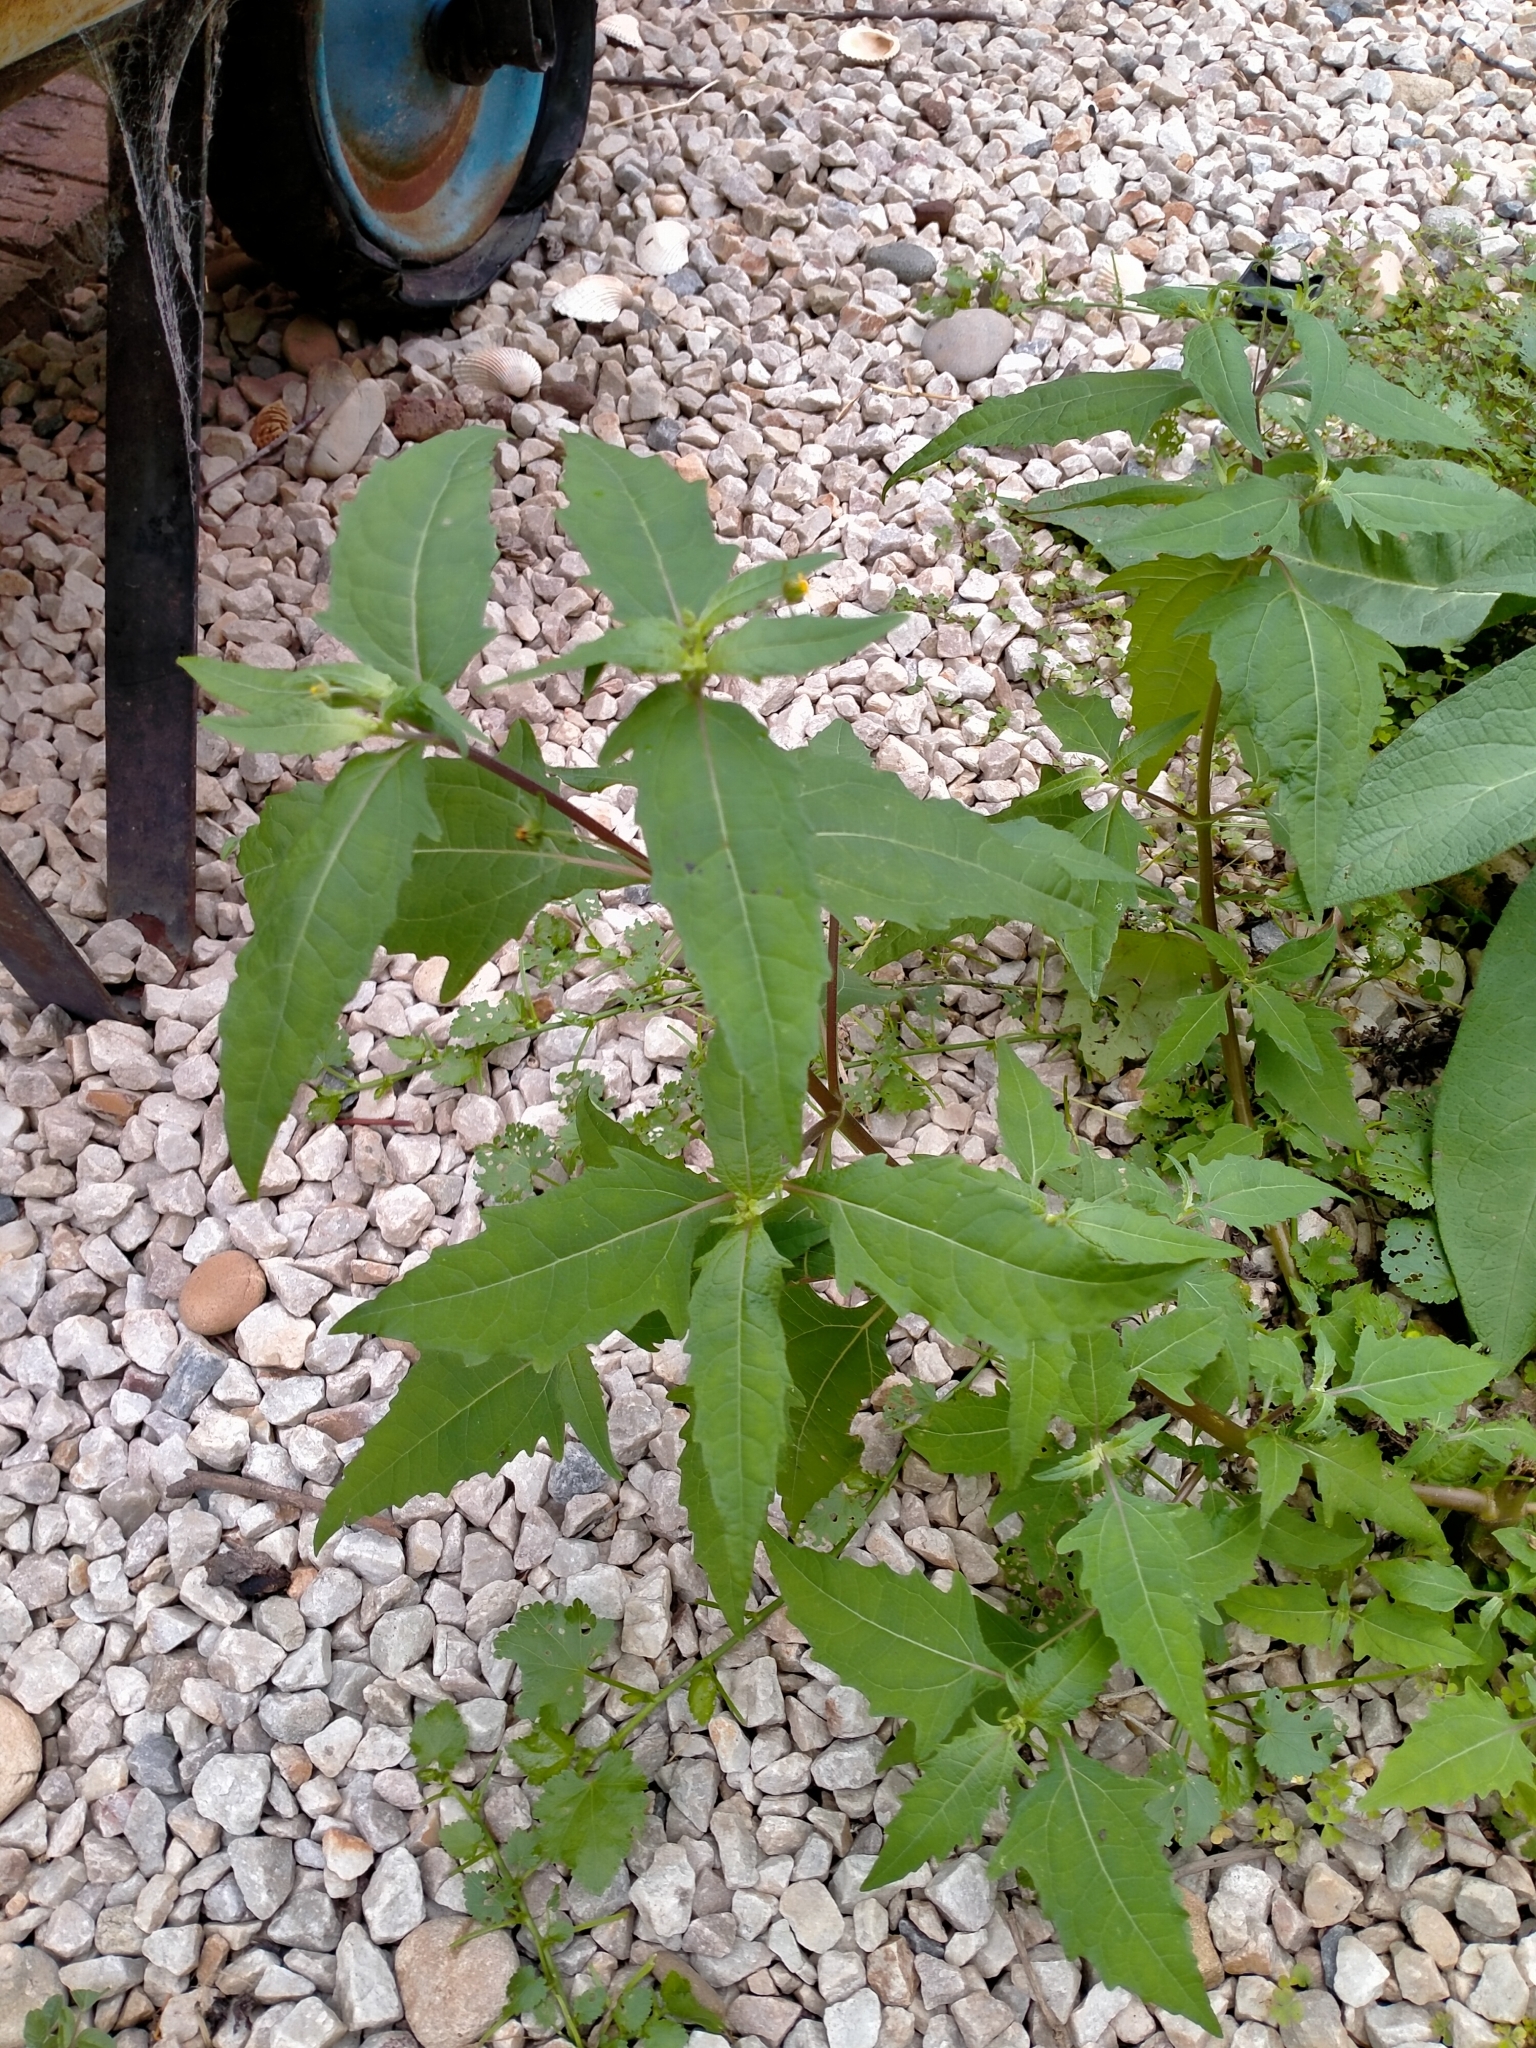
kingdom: Plantae
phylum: Tracheophyta
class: Magnoliopsida
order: Asterales
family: Asteraceae
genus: Sigesbeckia
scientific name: Sigesbeckia orientalis
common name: Eastern st paul's-wort
